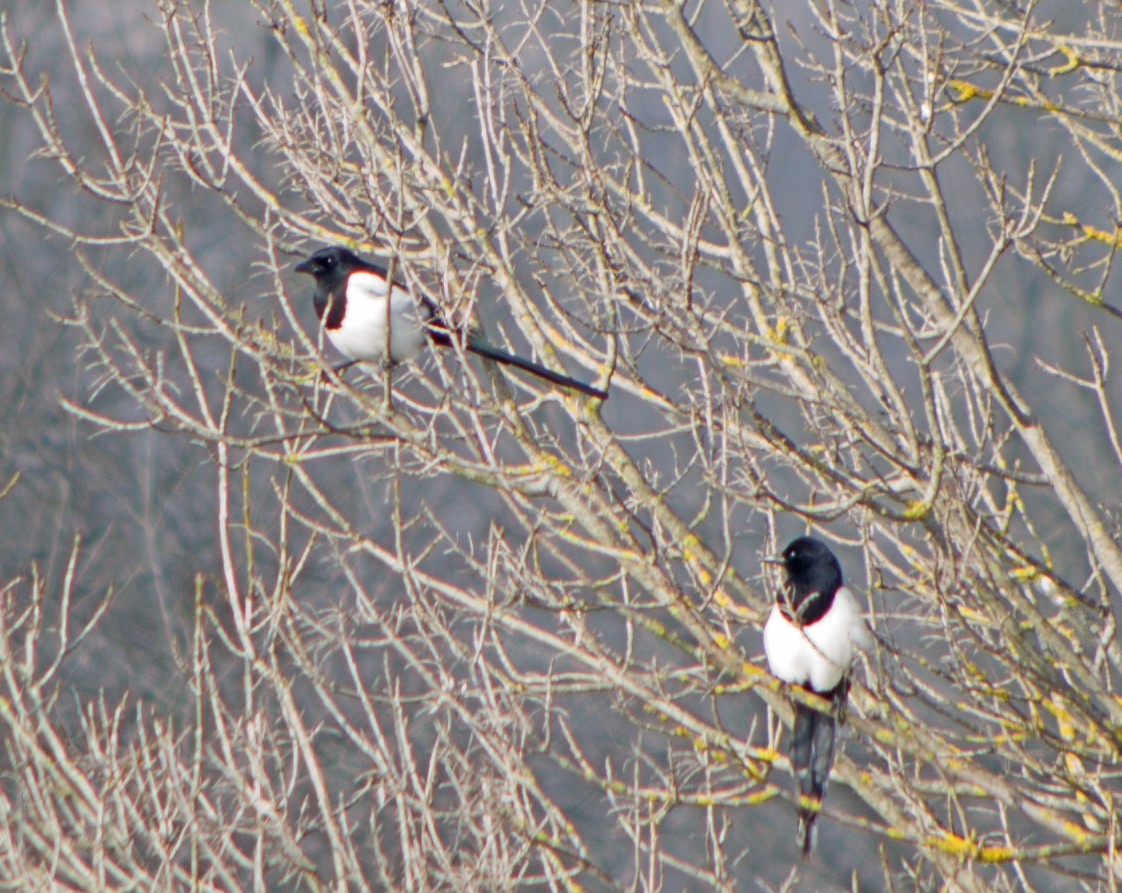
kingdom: Animalia
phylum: Chordata
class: Aves
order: Passeriformes
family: Corvidae
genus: Pica
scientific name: Pica pica
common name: Eurasian magpie
